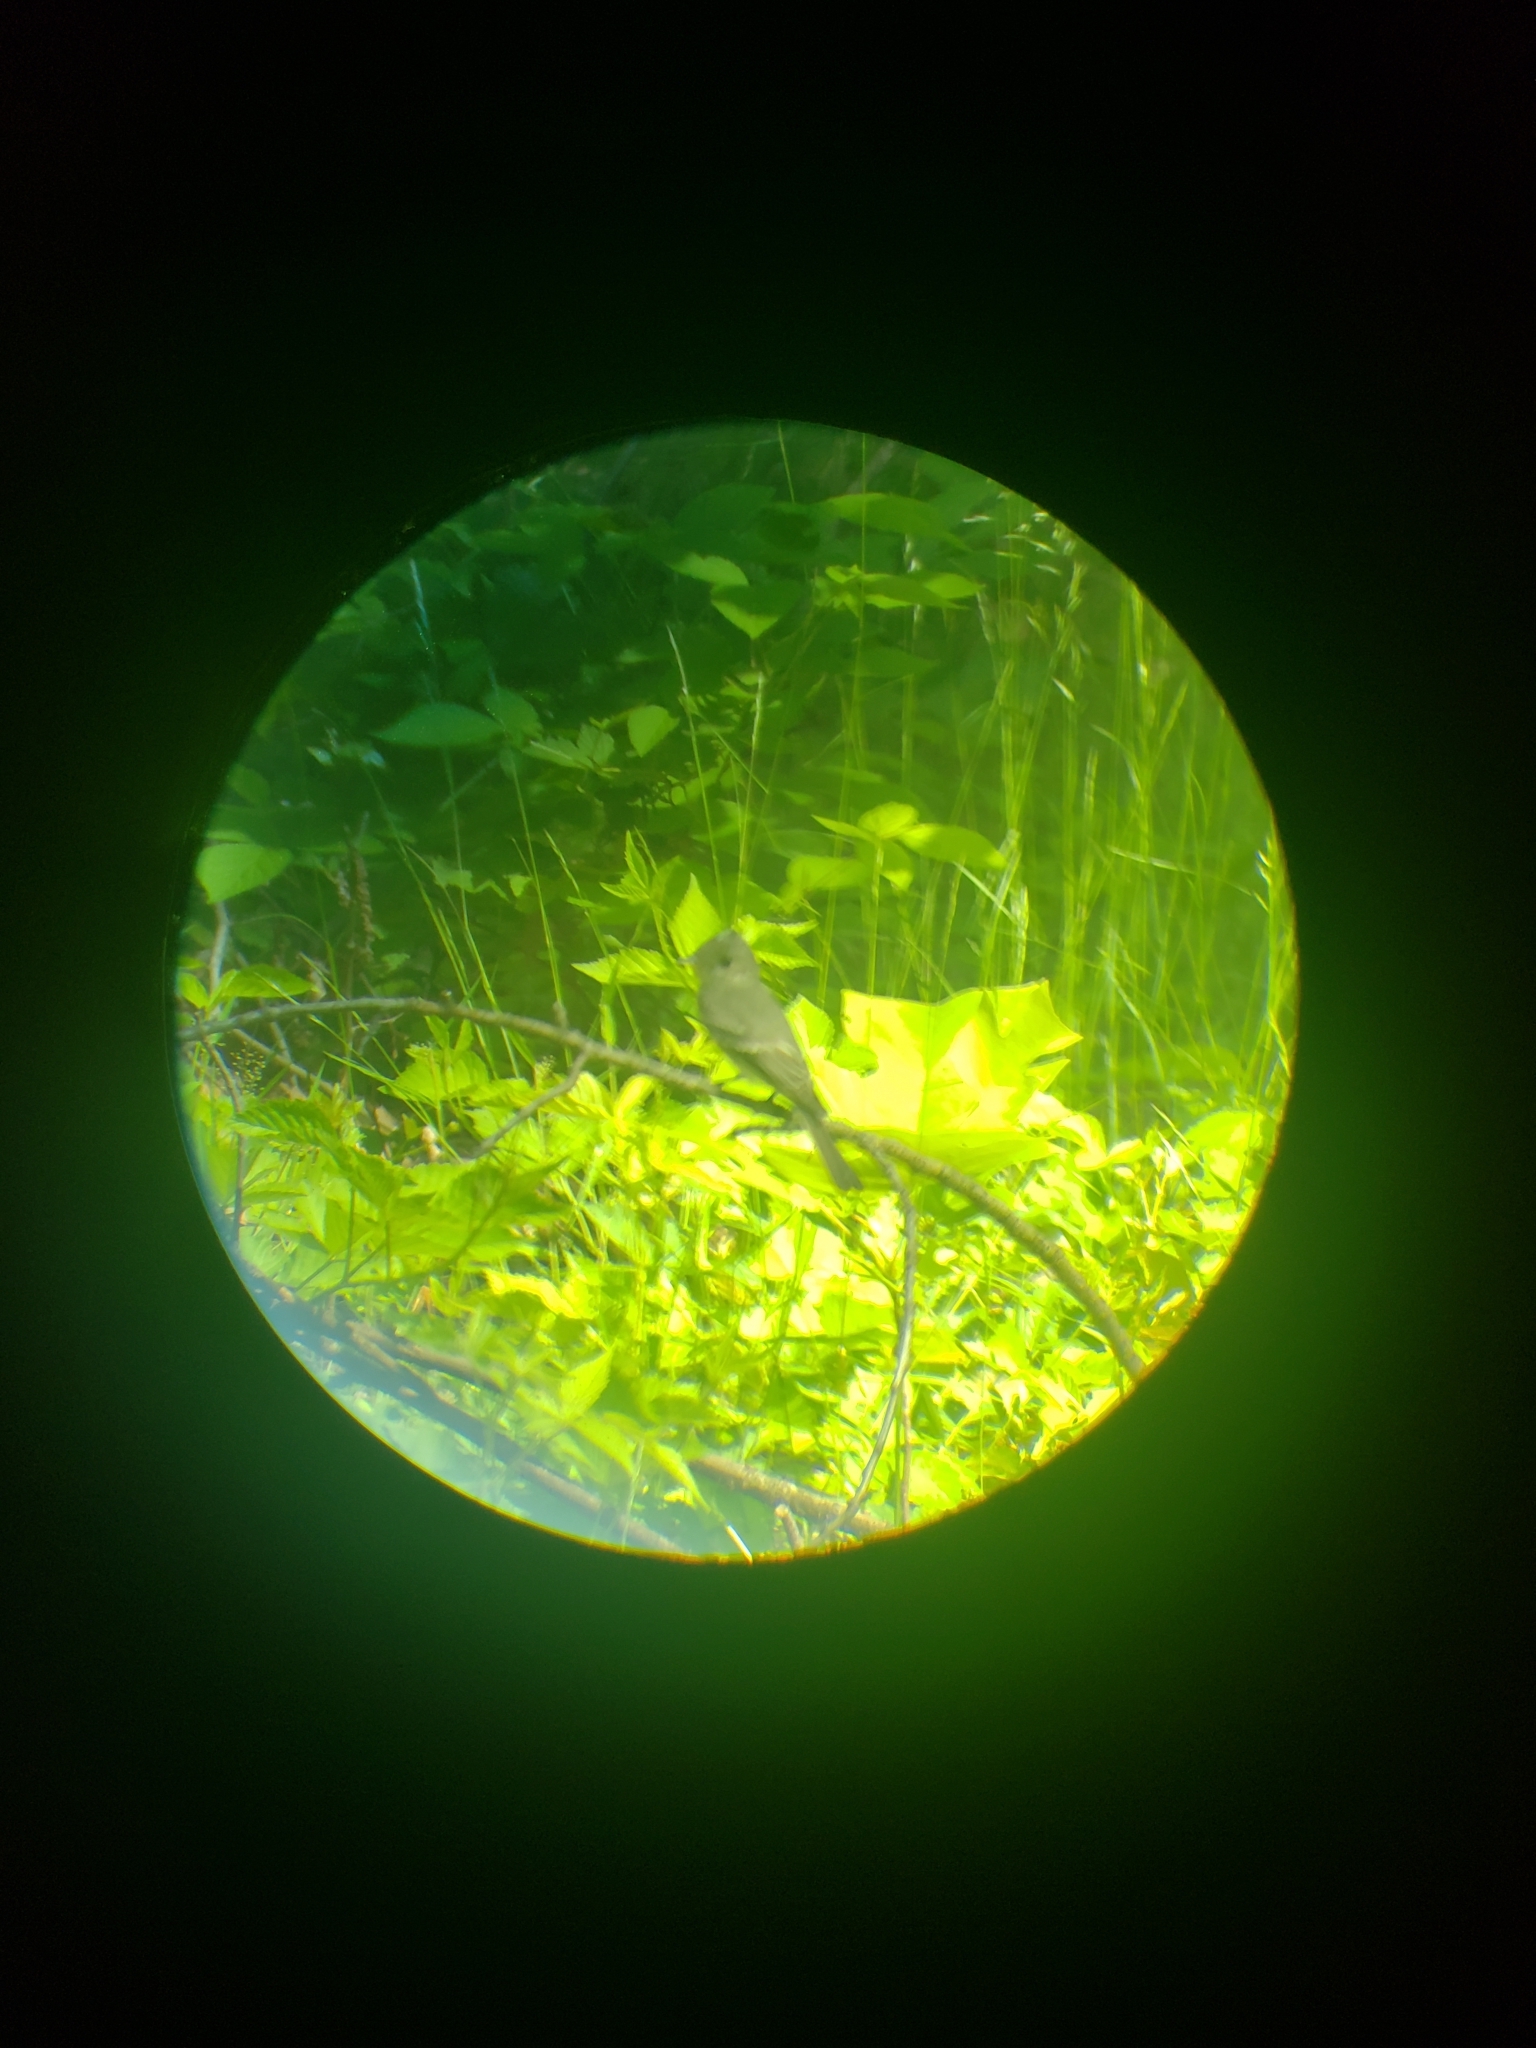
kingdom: Animalia
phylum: Chordata
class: Aves
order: Passeriformes
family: Tyrannidae
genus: Contopus
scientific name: Contopus virens
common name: Eastern wood-pewee
